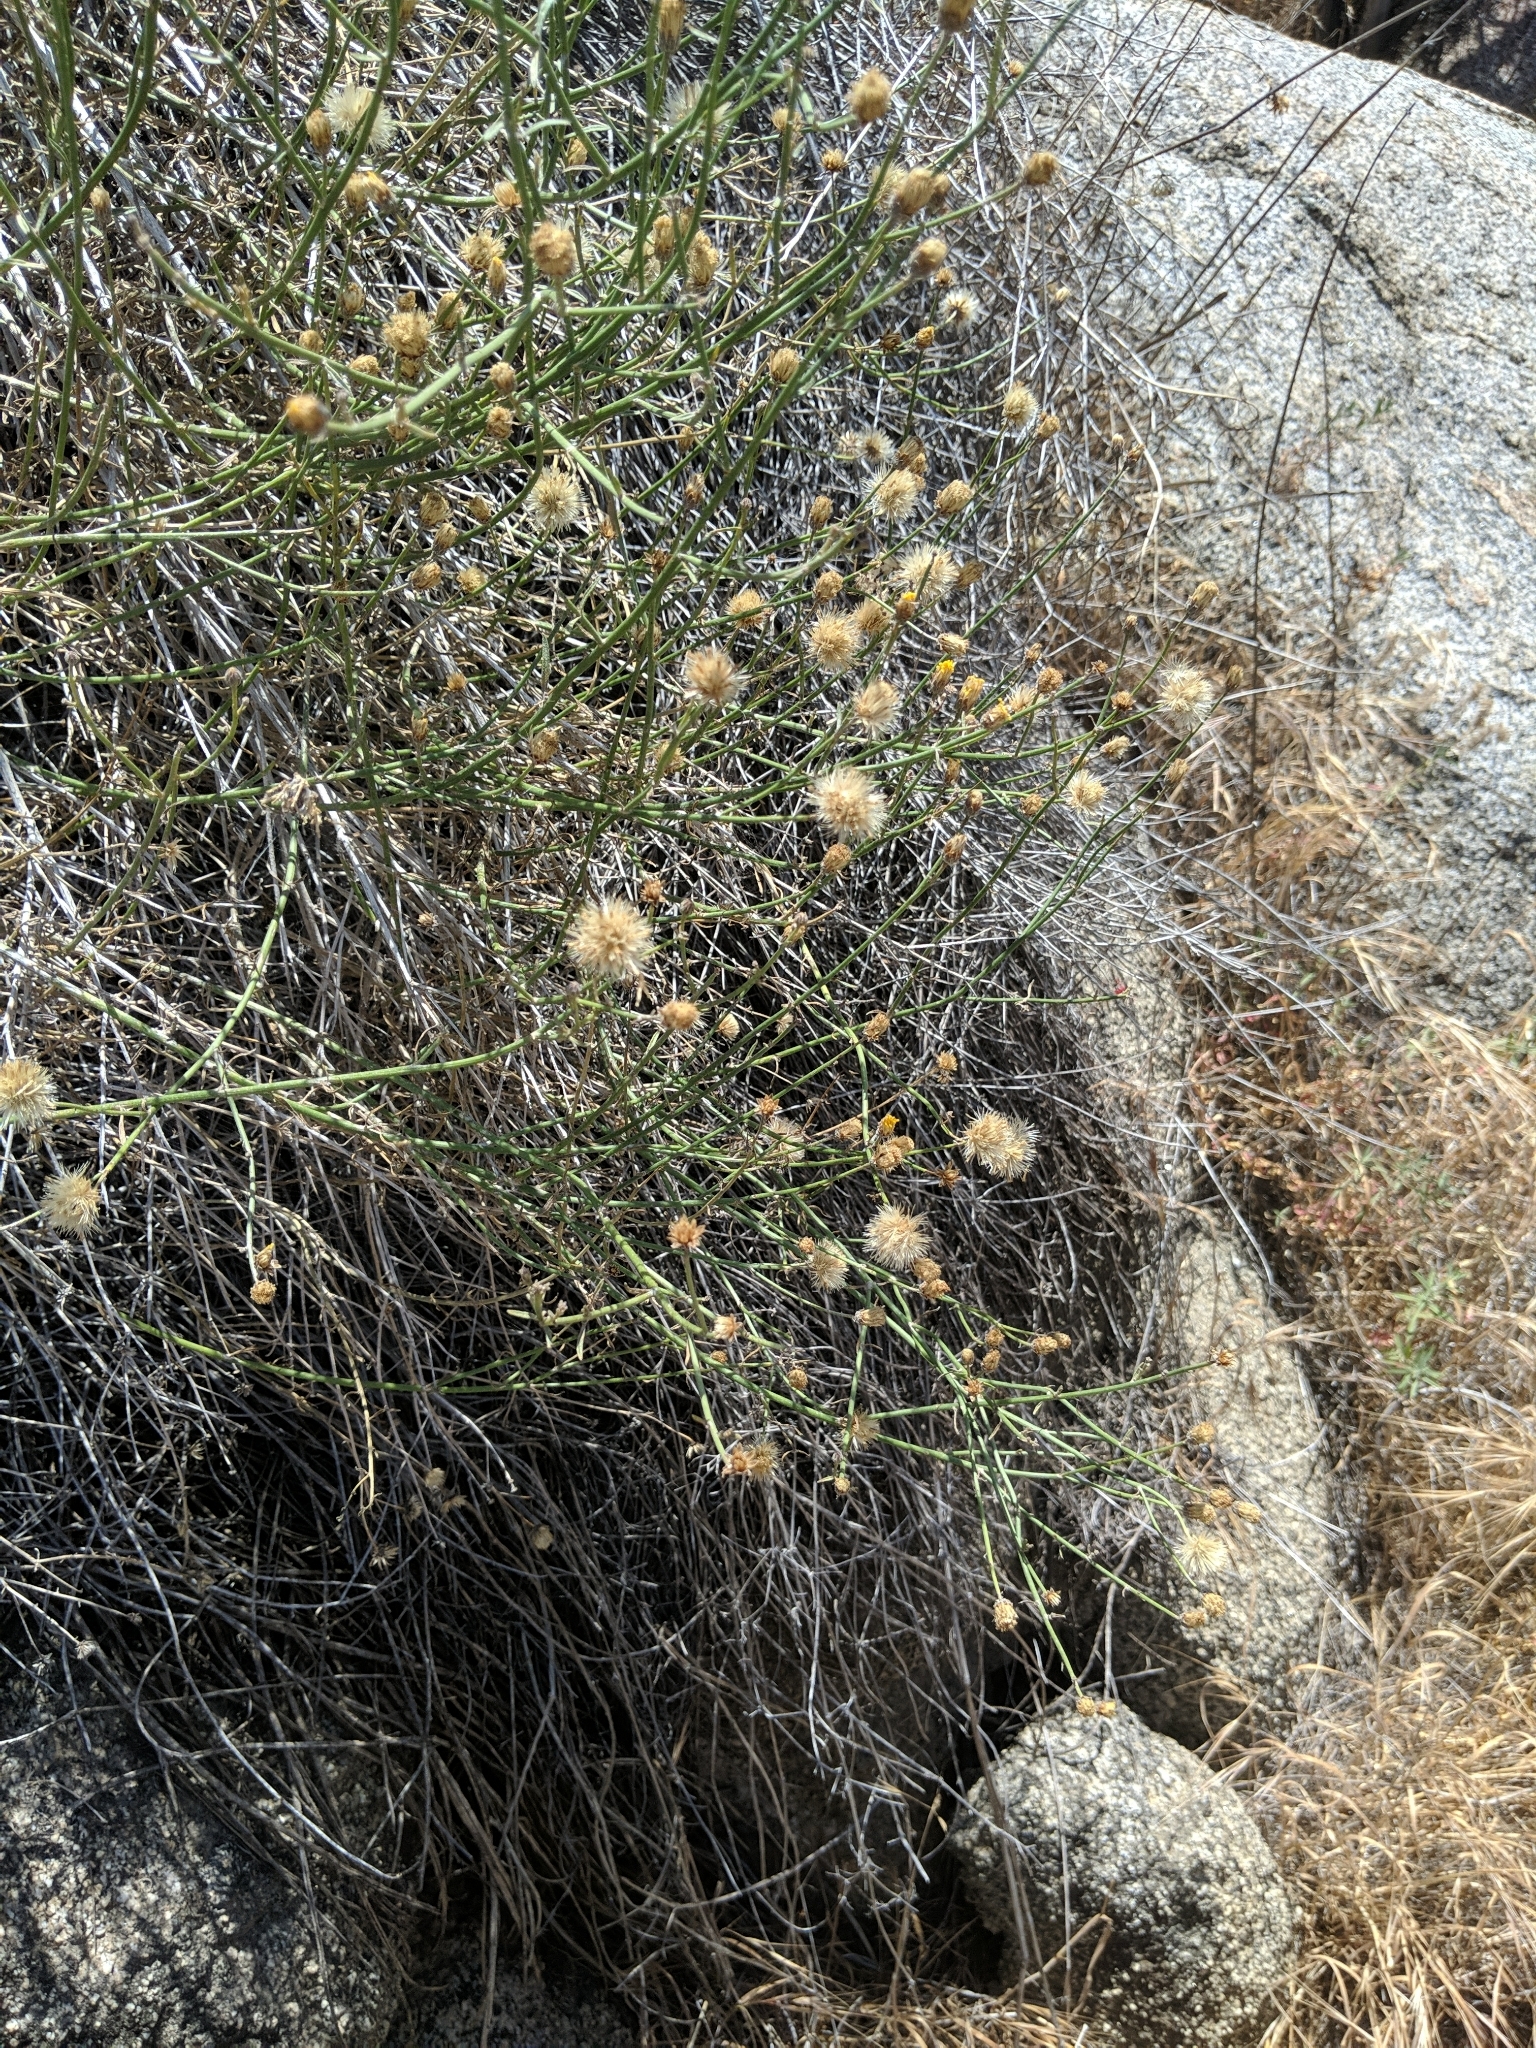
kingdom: Plantae
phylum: Tracheophyta
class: Magnoliopsida
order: Asterales
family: Asteraceae
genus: Bebbia
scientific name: Bebbia juncea
